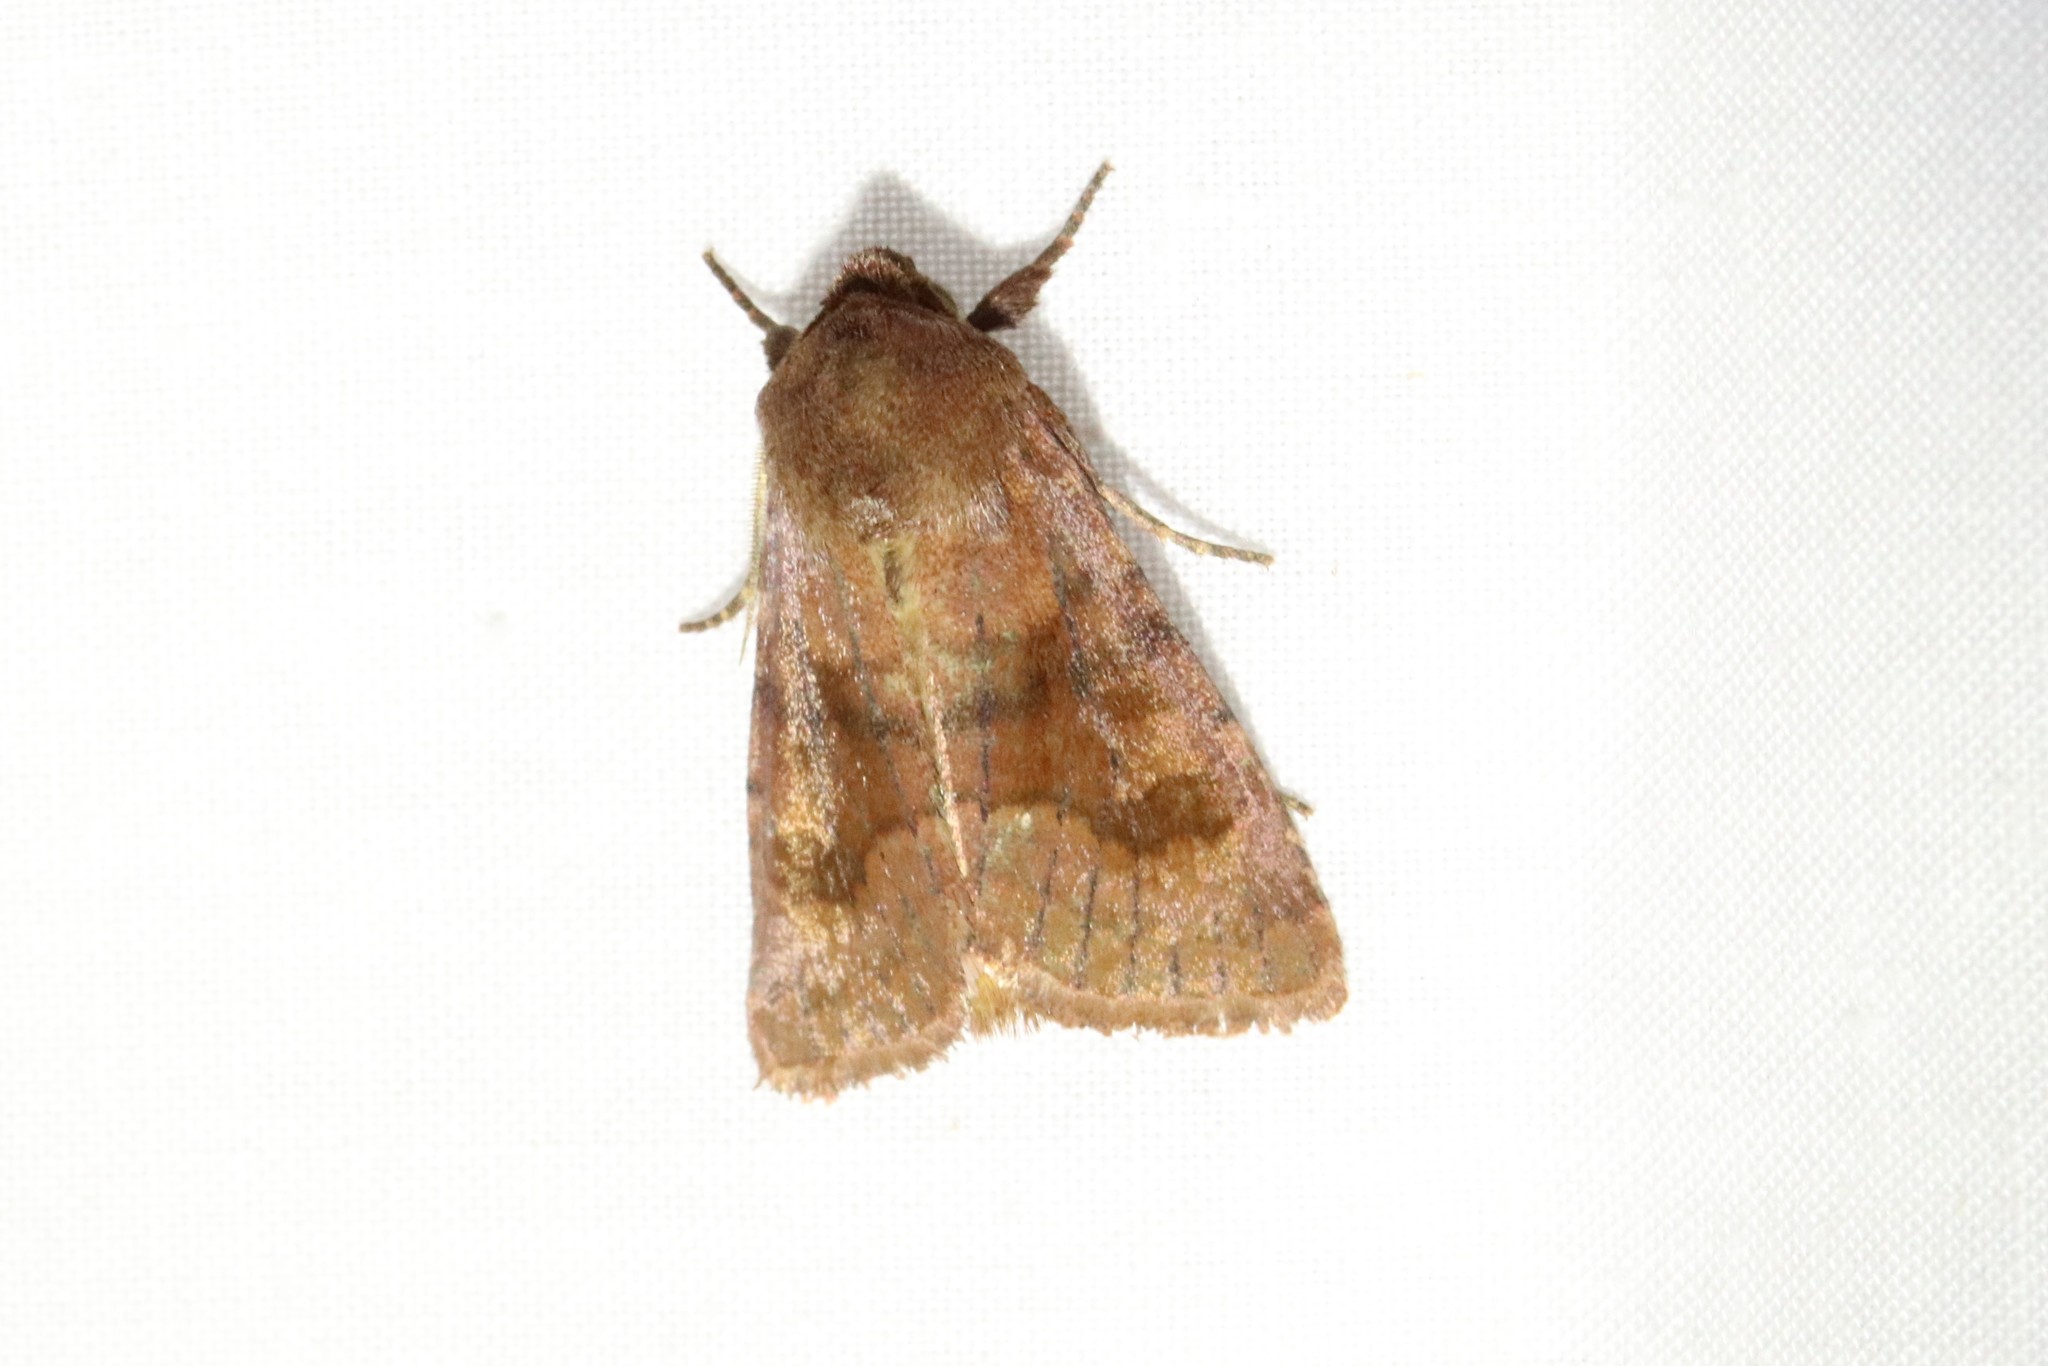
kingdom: Animalia
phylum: Arthropoda
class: Insecta
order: Lepidoptera
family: Noctuidae
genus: Nephelodes
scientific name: Nephelodes minians
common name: Bronzed cutworm
